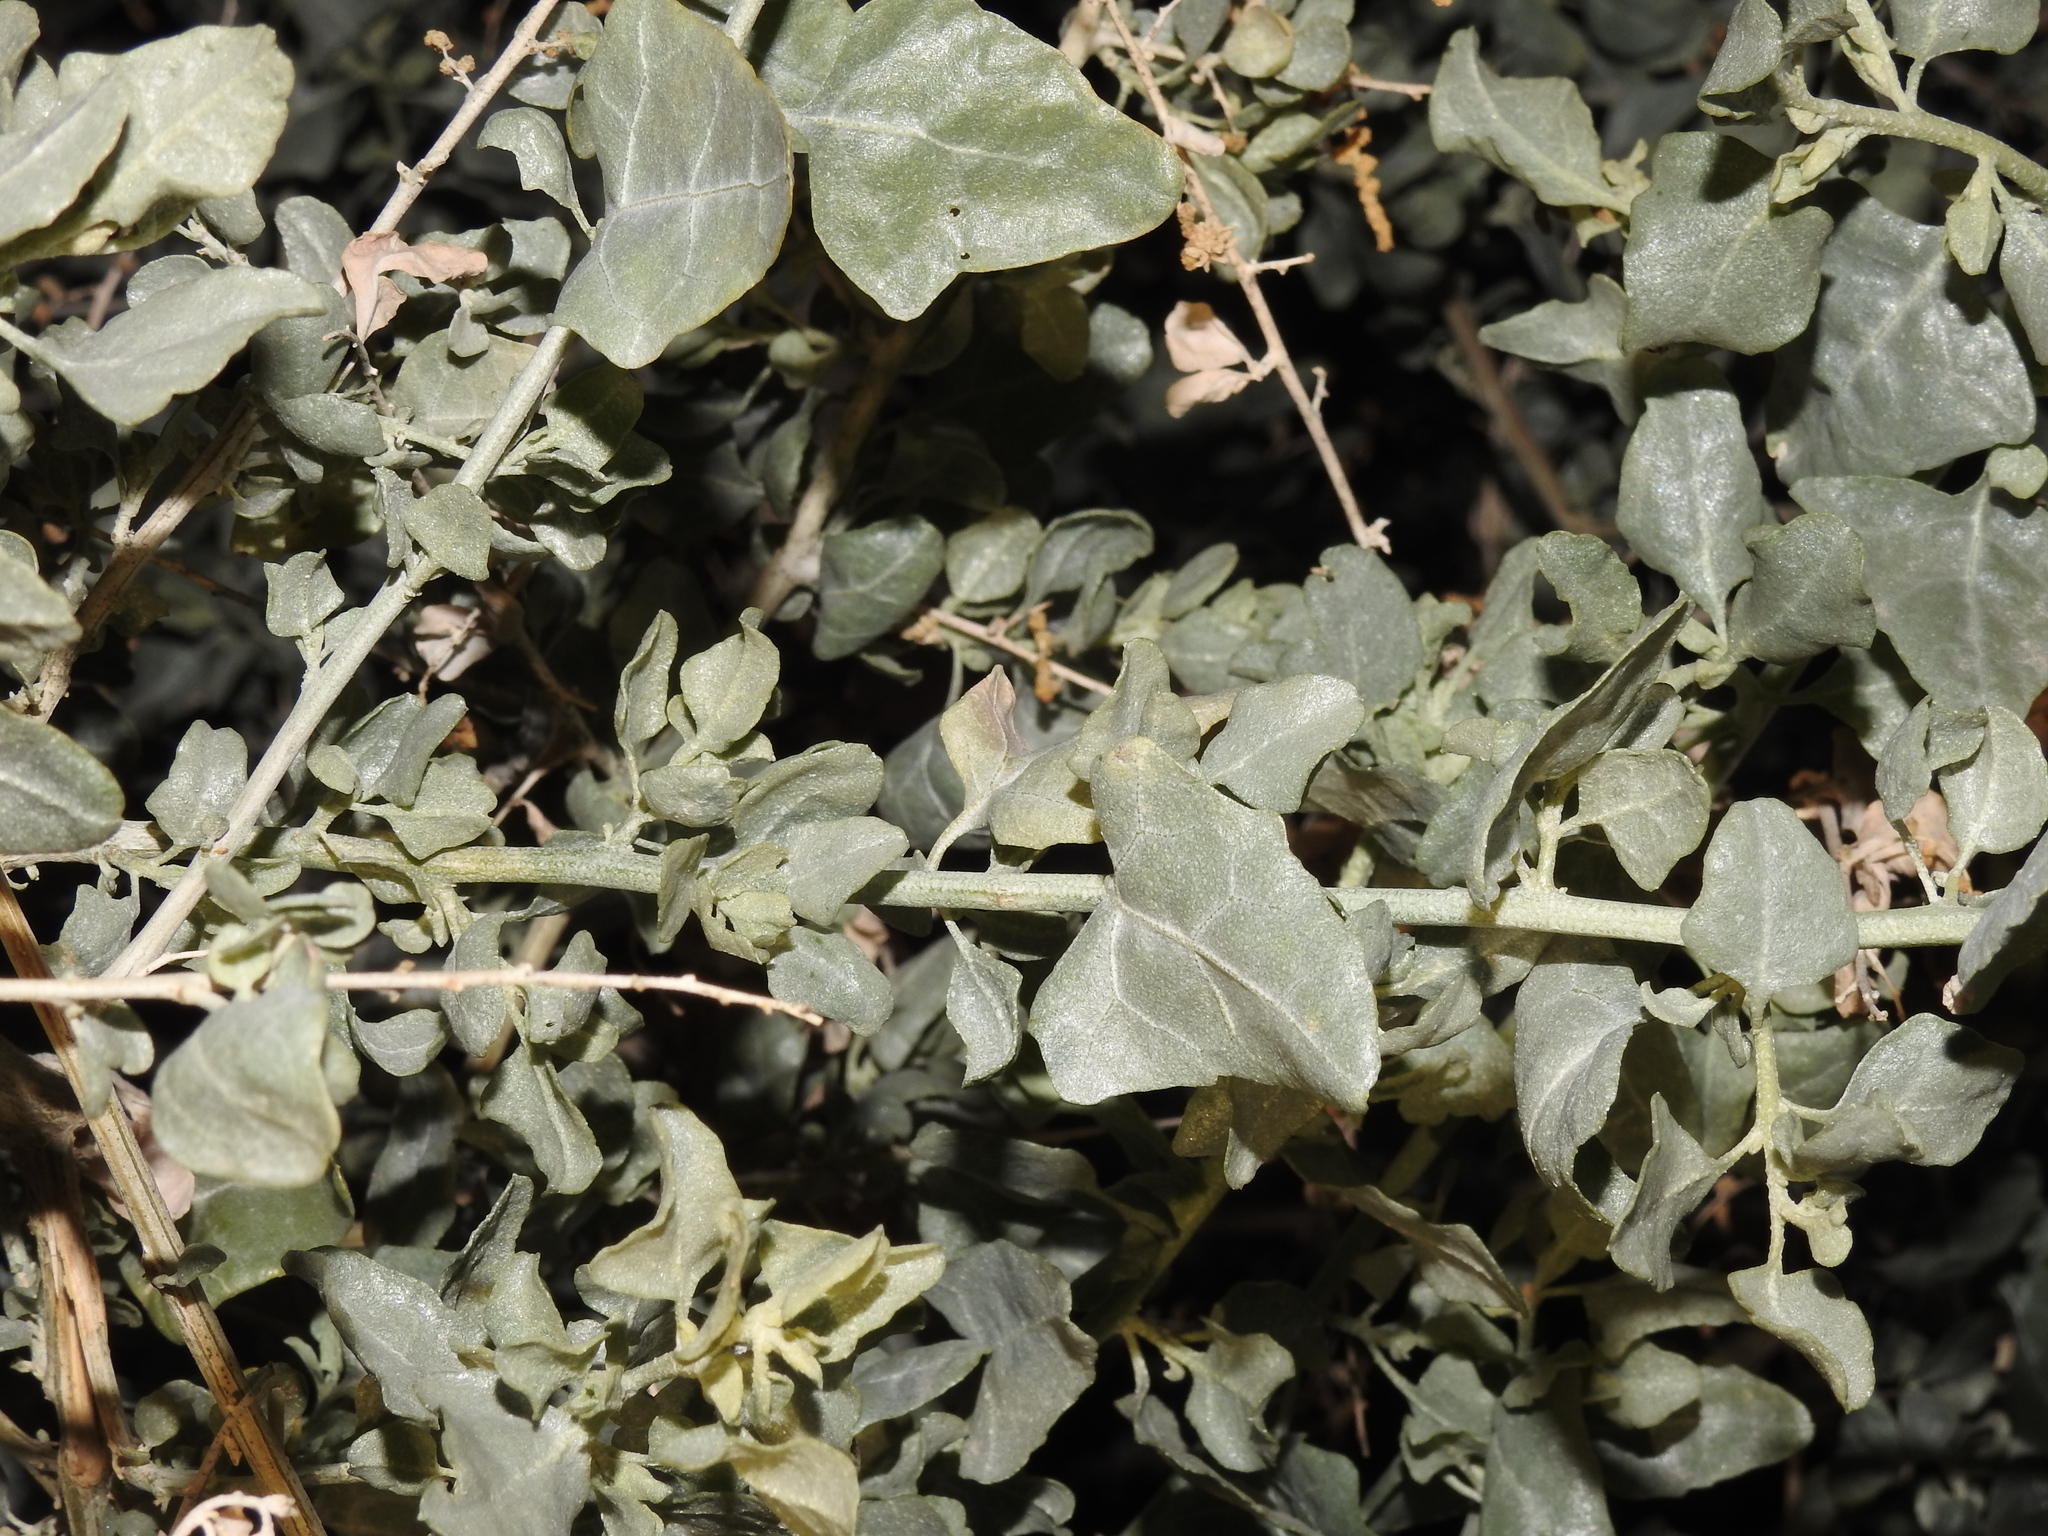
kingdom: Plantae
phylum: Tracheophyta
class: Magnoliopsida
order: Caryophyllales
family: Amaranthaceae
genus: Atriplex
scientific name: Atriplex lentiformis
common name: Big saltbush
